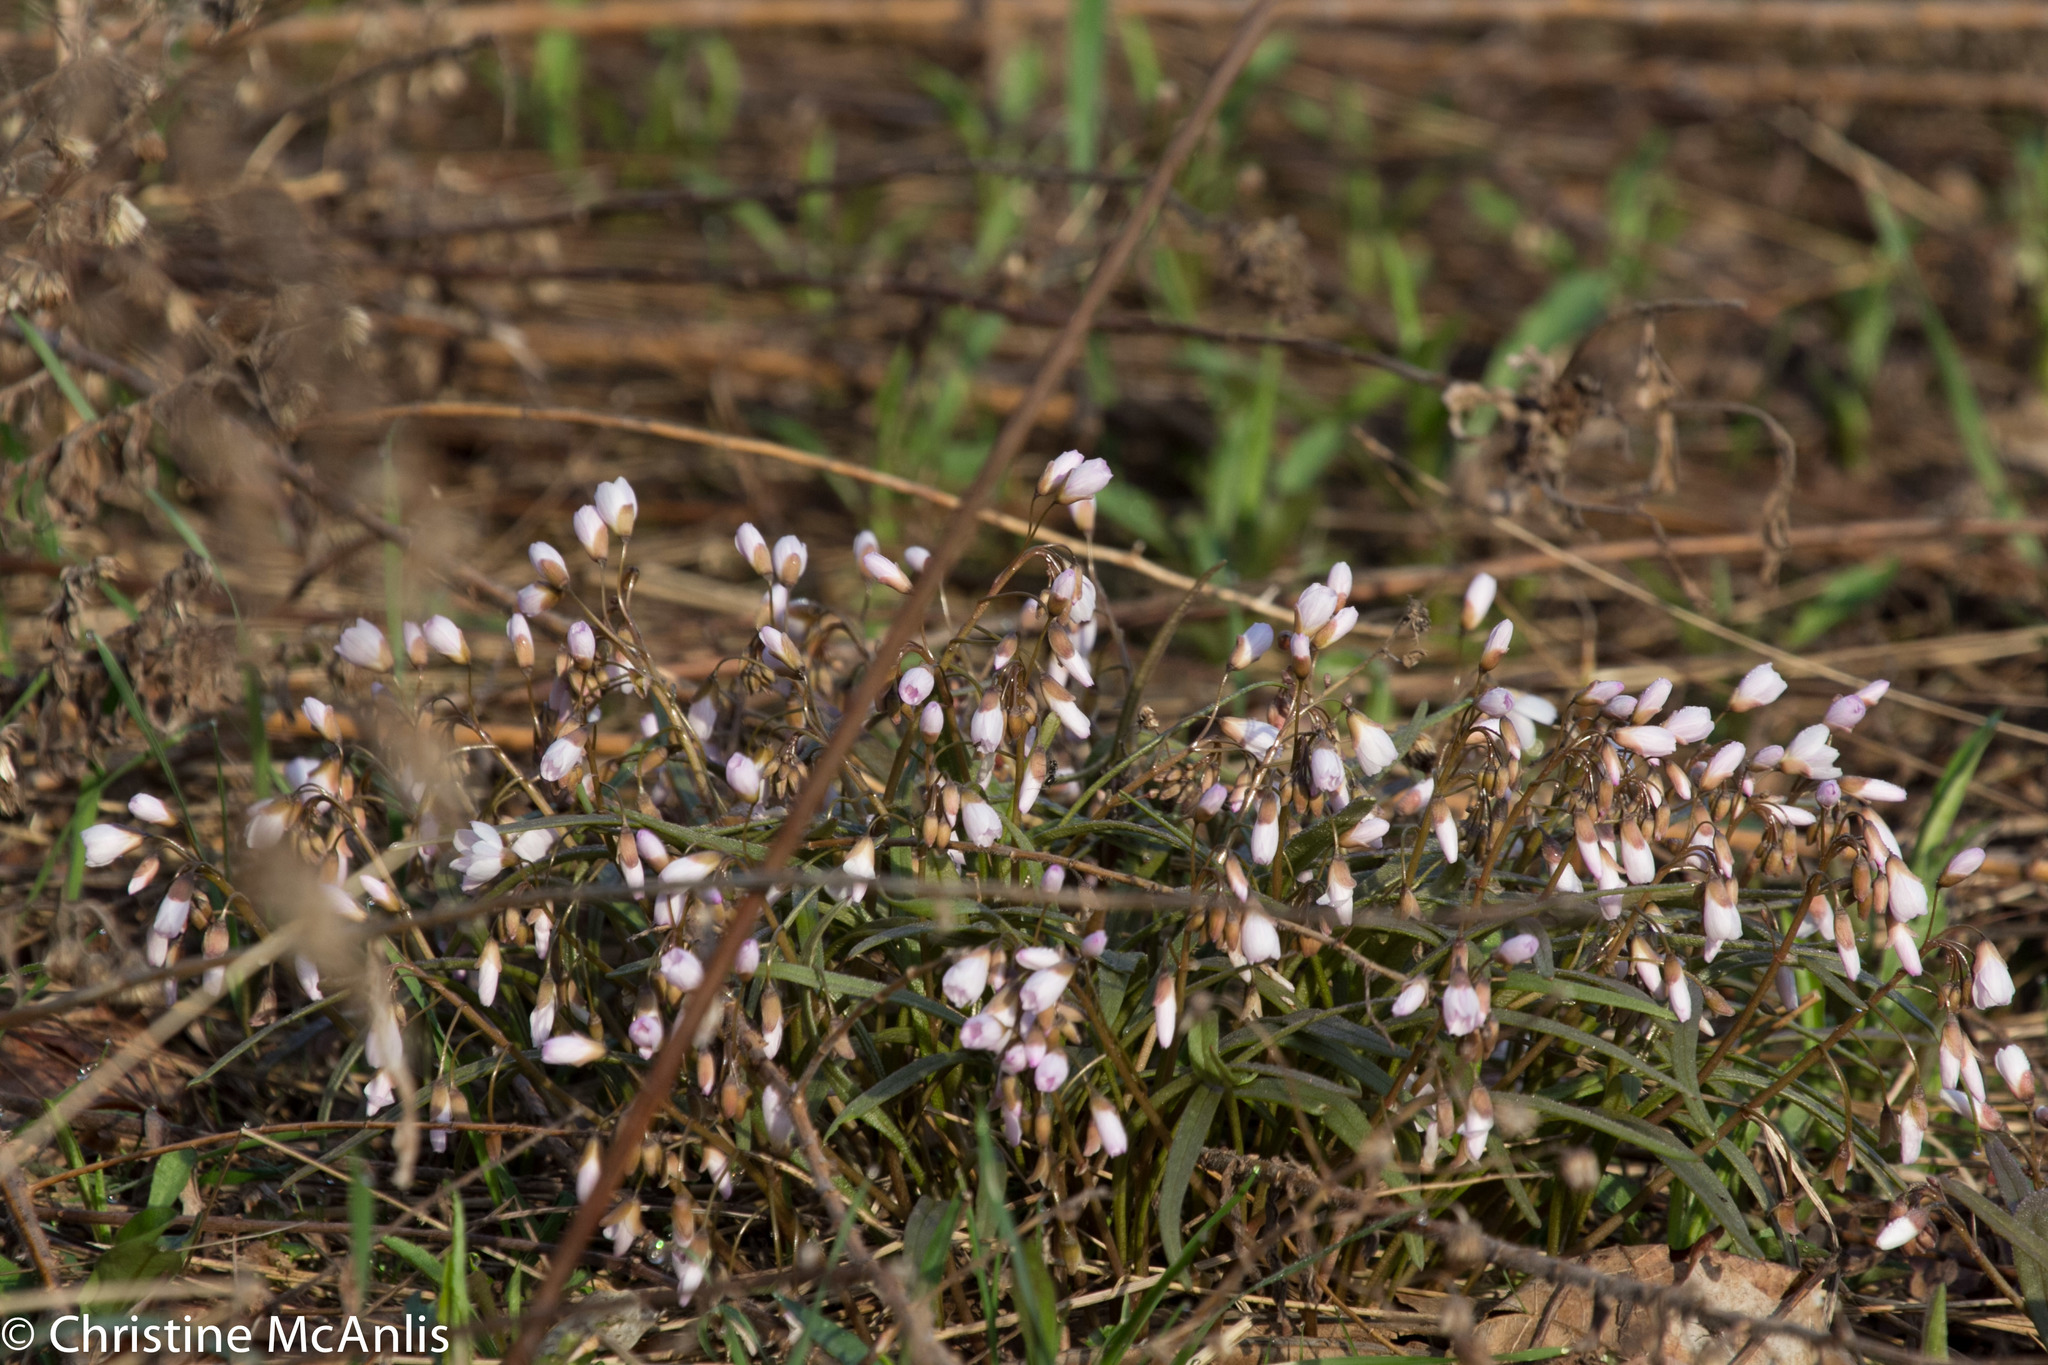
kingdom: Plantae
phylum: Tracheophyta
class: Magnoliopsida
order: Caryophyllales
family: Montiaceae
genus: Claytonia
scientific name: Claytonia virginica
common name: Virginia springbeauty
